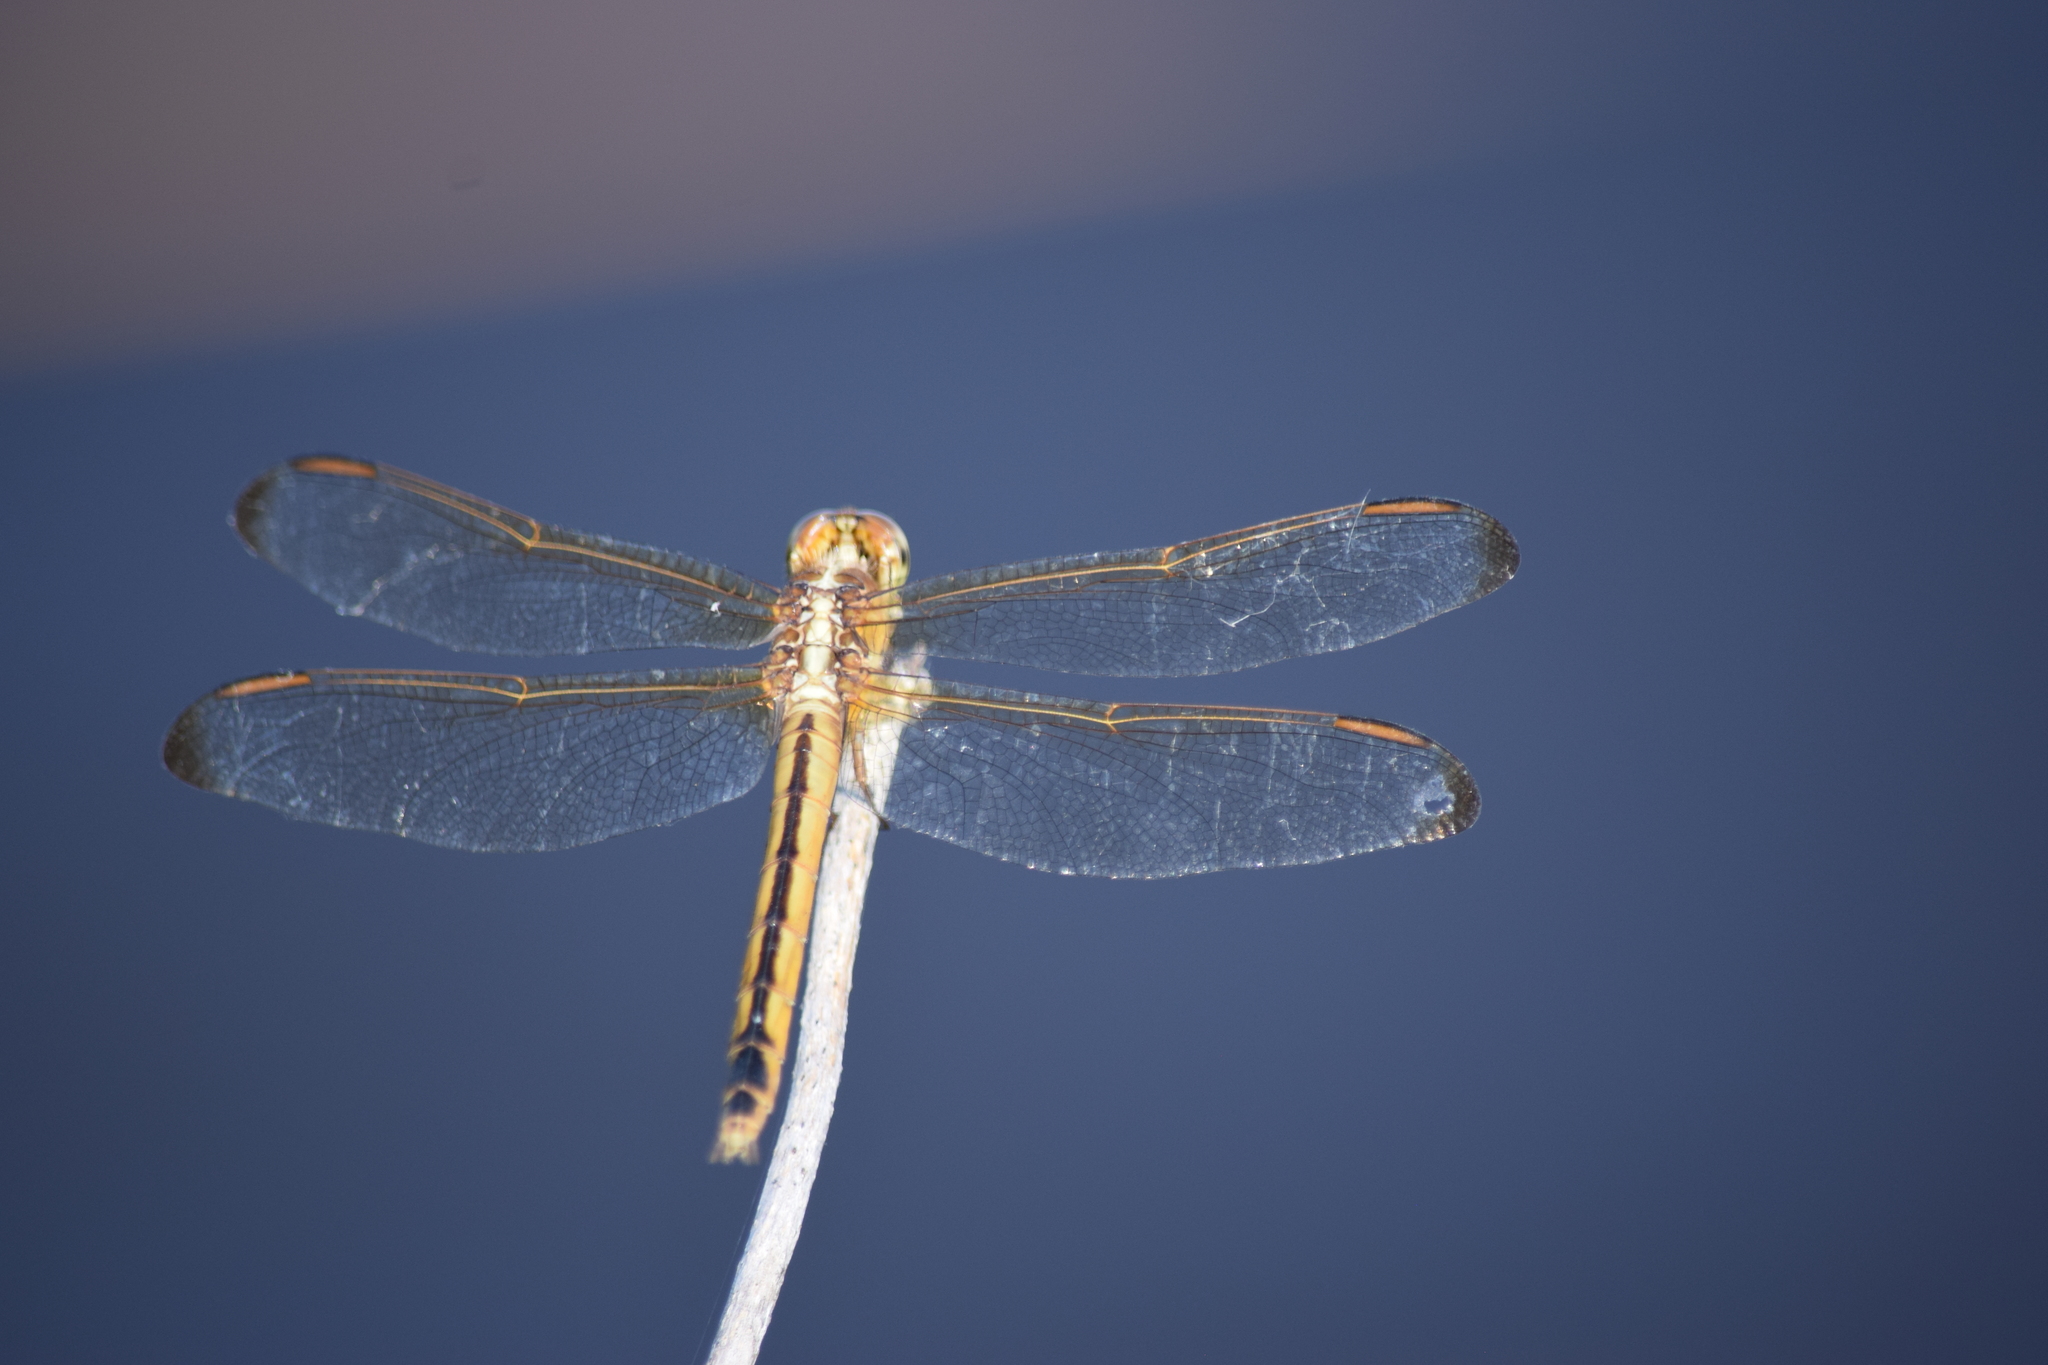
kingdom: Animalia
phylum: Arthropoda
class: Insecta
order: Odonata
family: Libellulidae
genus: Libellula
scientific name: Libellula needhami
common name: Needham's skimmer
